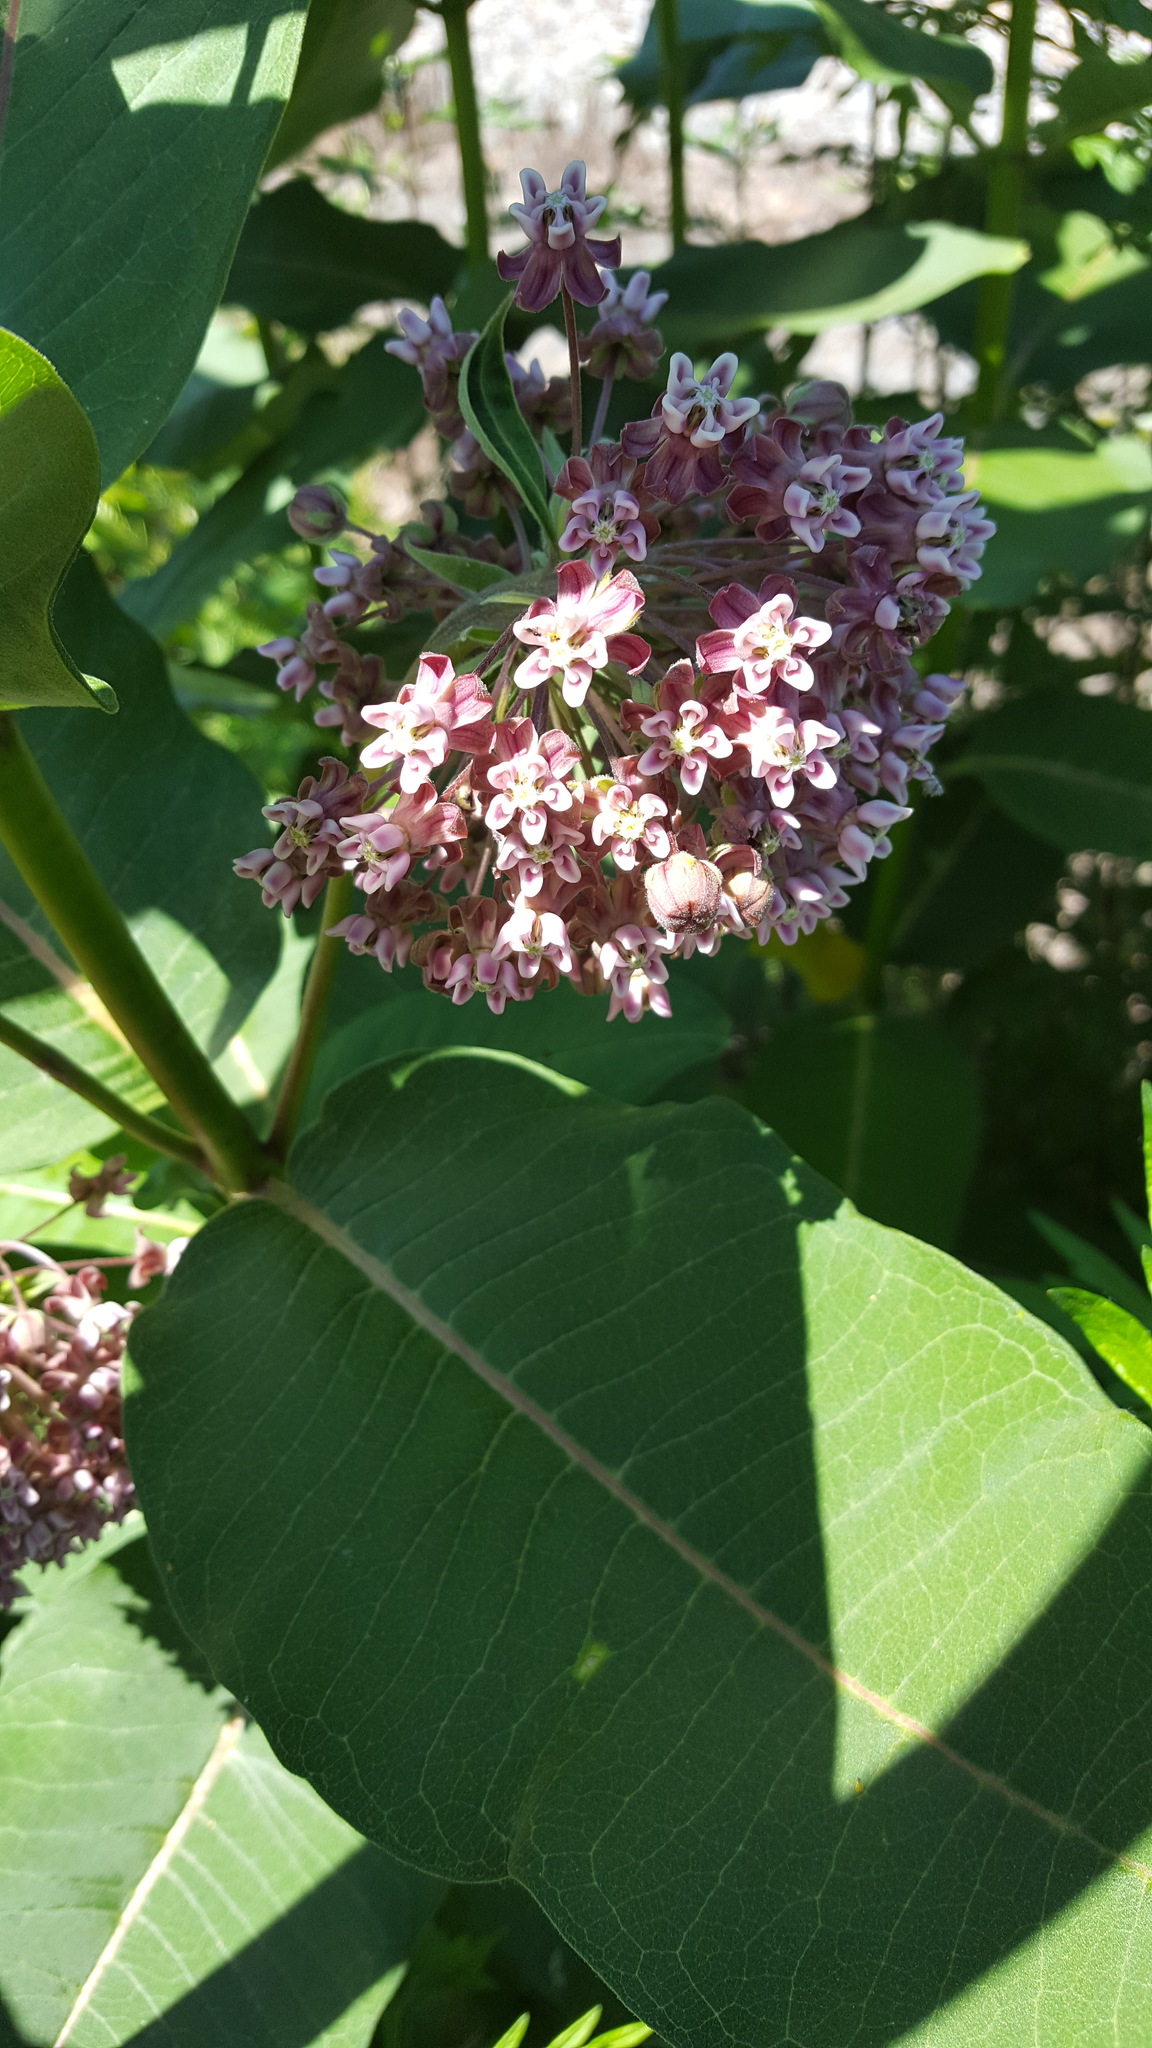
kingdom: Plantae
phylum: Tracheophyta
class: Magnoliopsida
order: Gentianales
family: Apocynaceae
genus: Asclepias
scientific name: Asclepias syriaca
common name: Common milkweed
